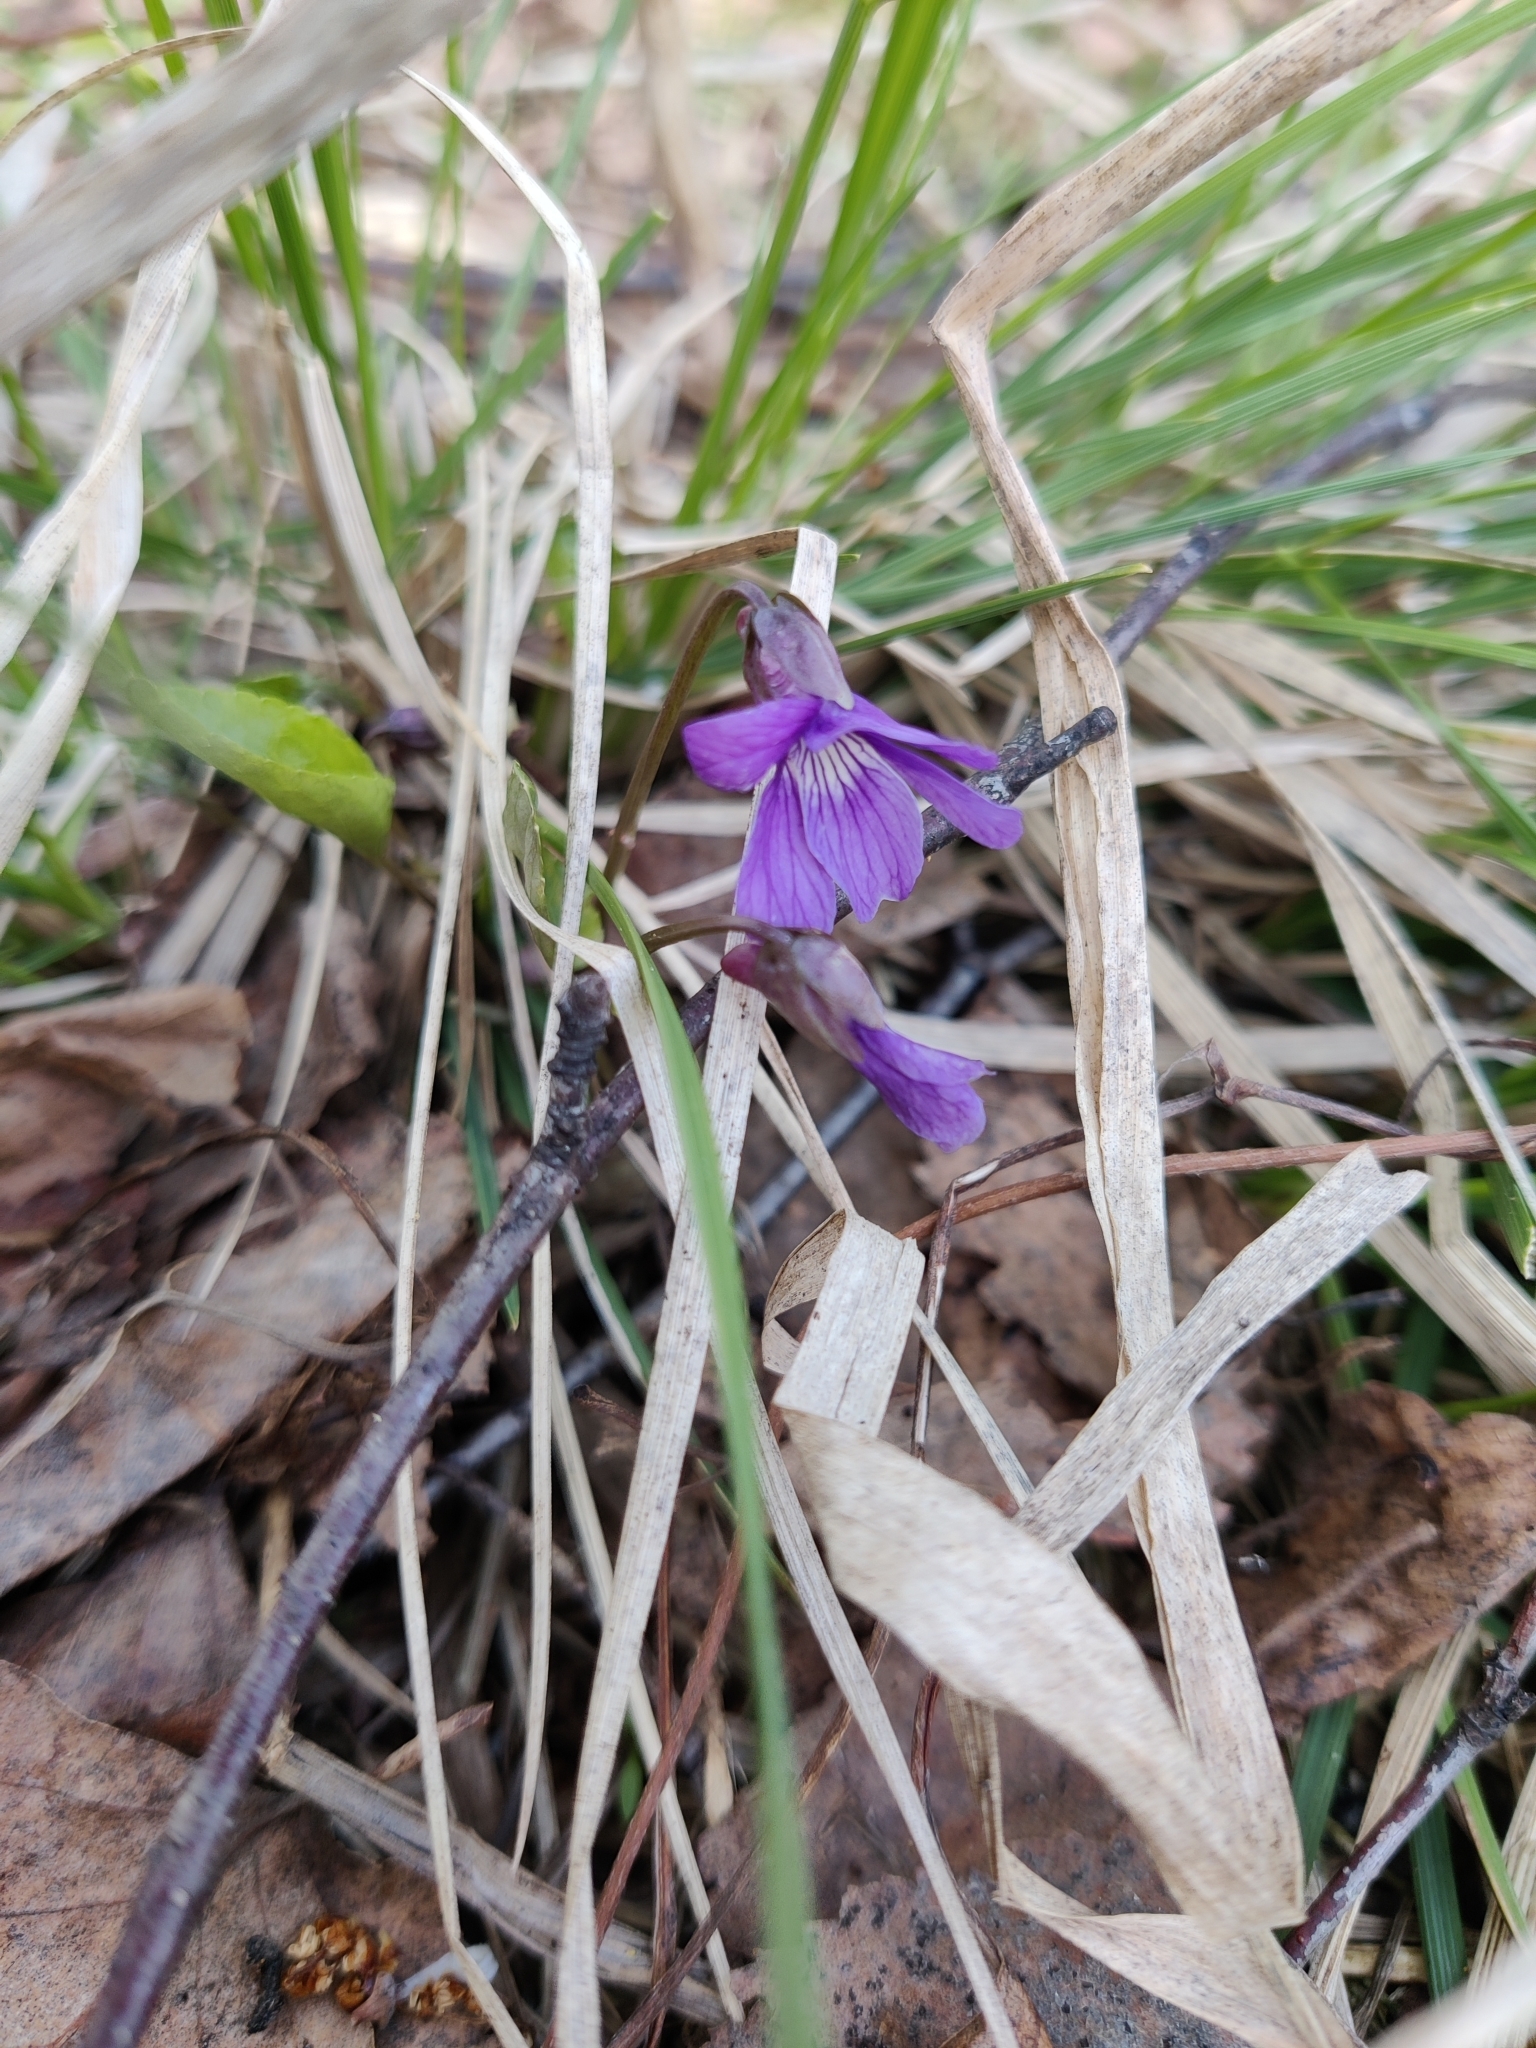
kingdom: Plantae
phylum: Tracheophyta
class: Magnoliopsida
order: Malpighiales
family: Violaceae
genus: Viola
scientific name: Viola uliginosa
